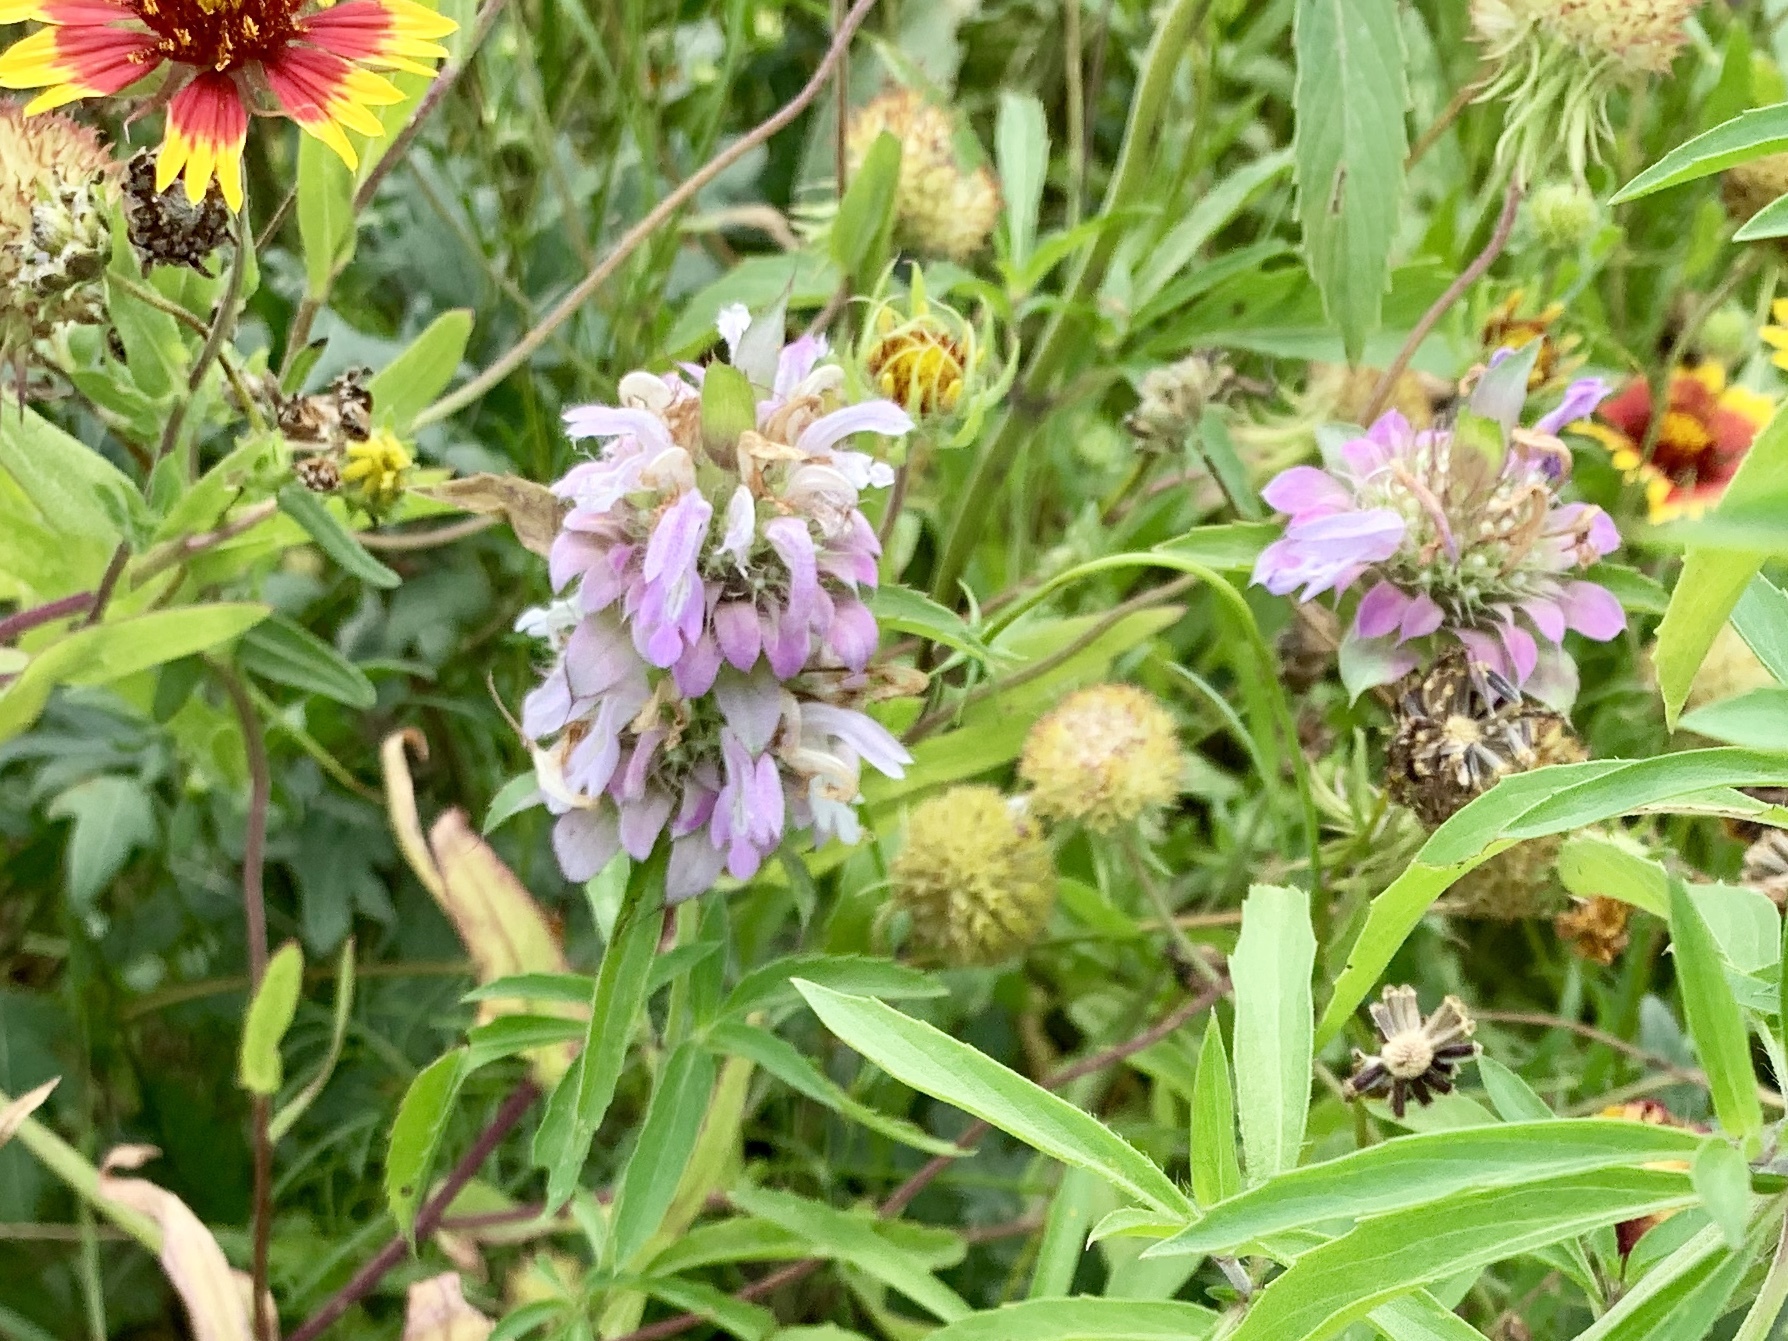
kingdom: Plantae
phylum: Tracheophyta
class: Magnoliopsida
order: Lamiales
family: Lamiaceae
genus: Monarda
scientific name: Monarda citriodora
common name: Lemon beebalm
